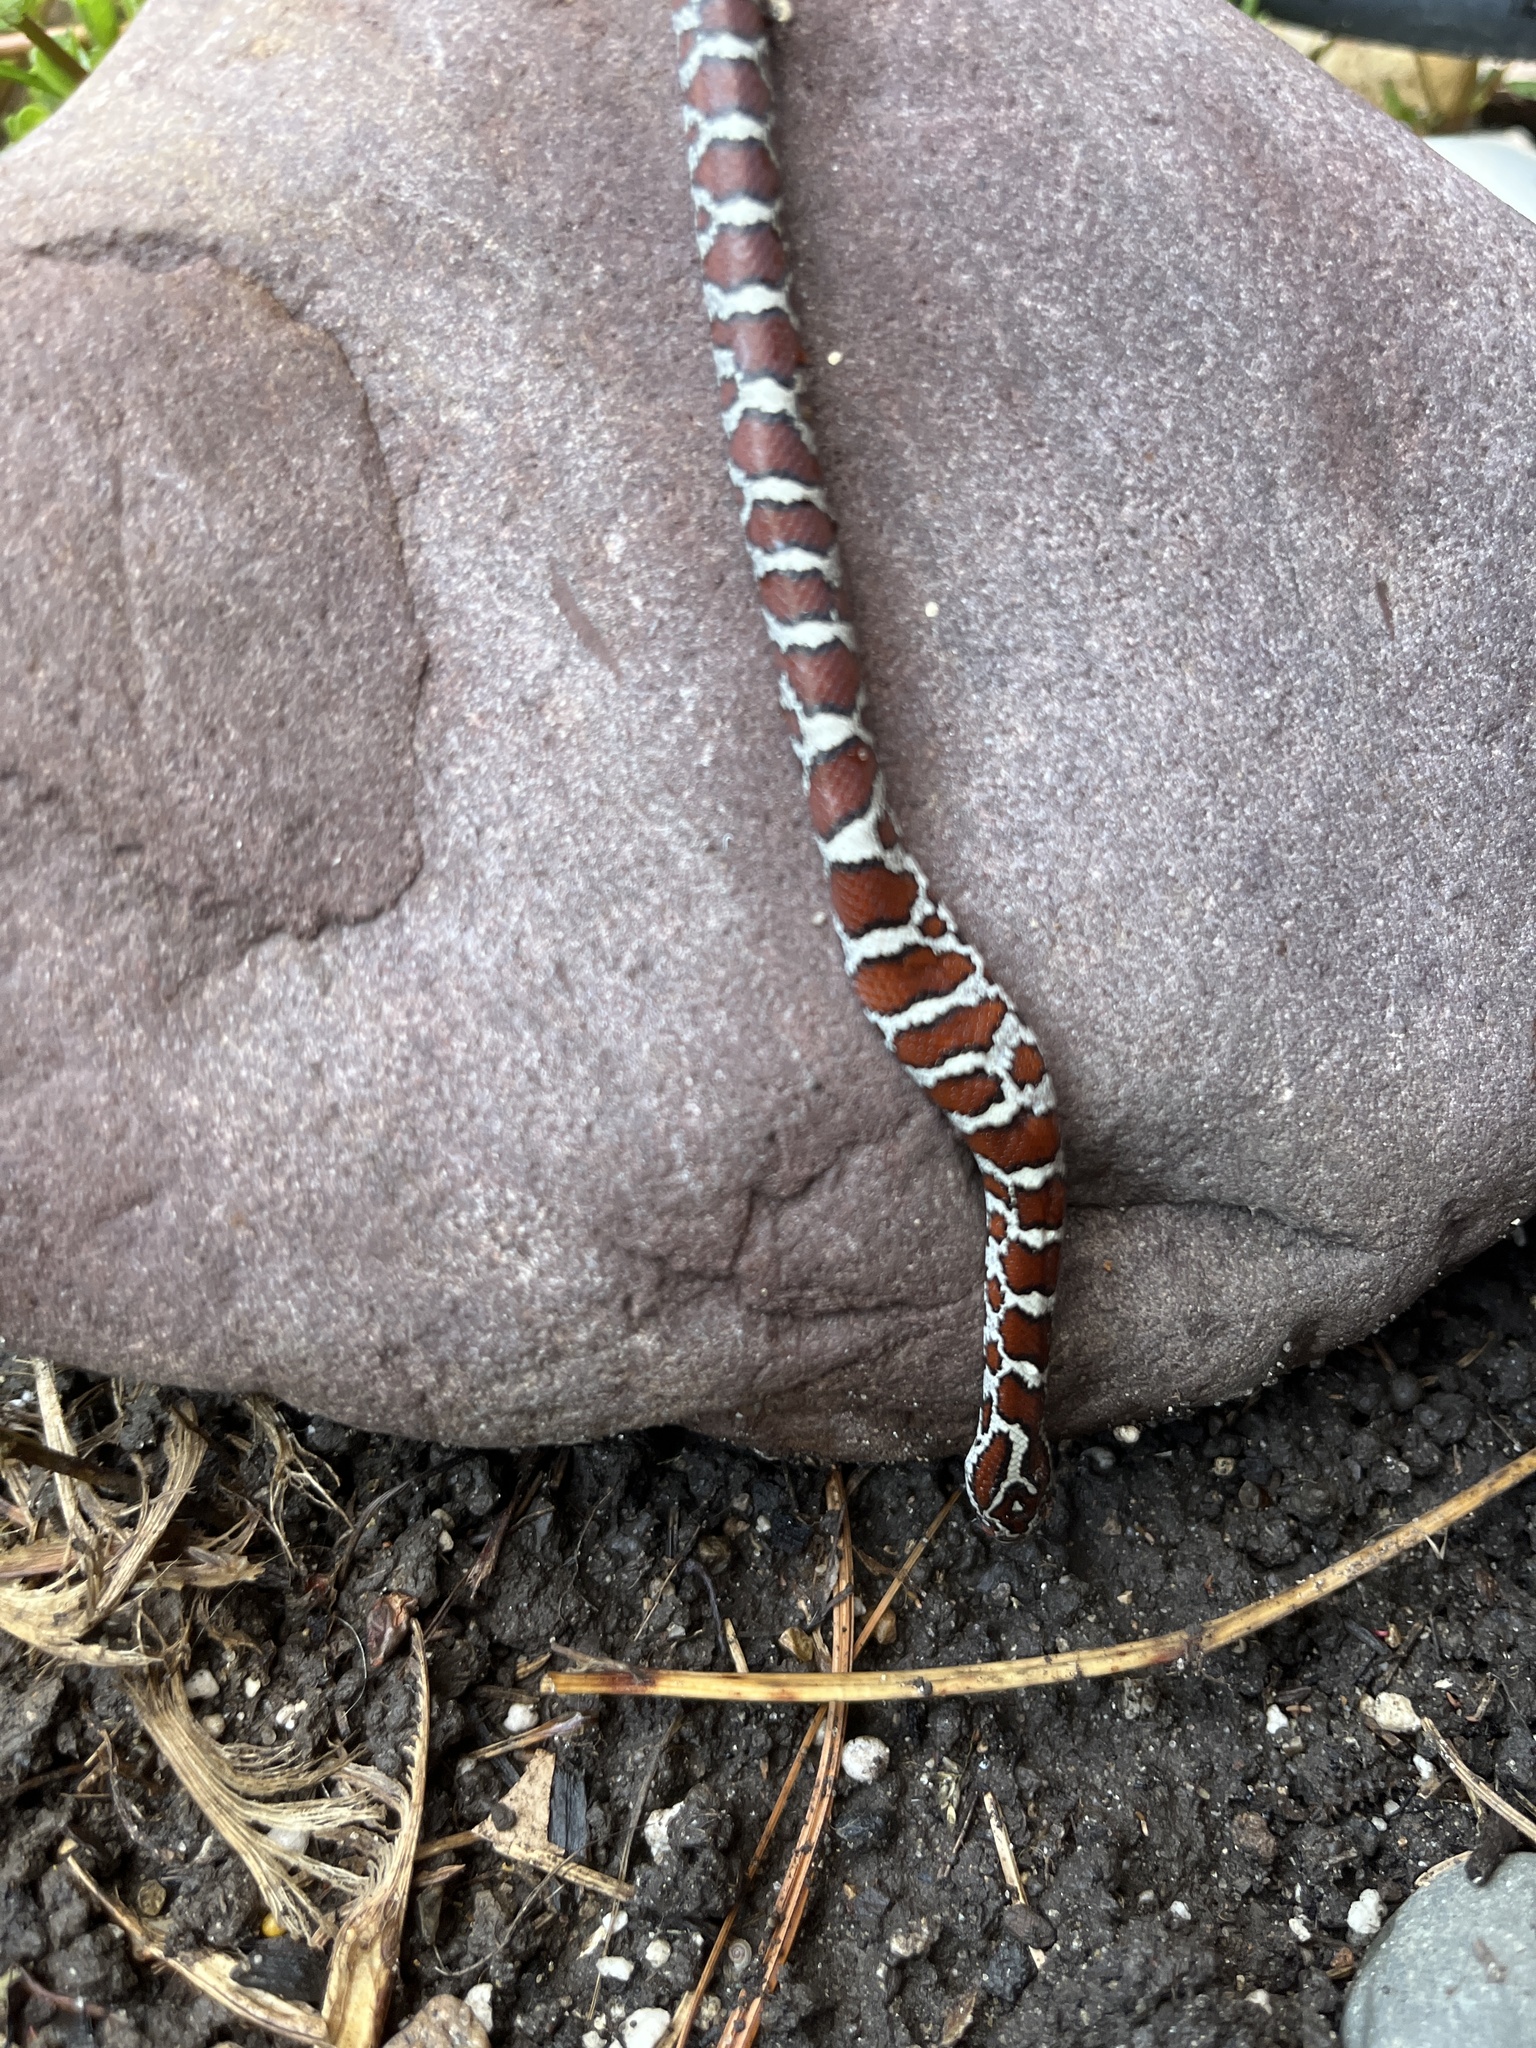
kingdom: Animalia
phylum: Chordata
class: Squamata
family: Colubridae
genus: Lampropeltis
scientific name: Lampropeltis triangulum
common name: Eastern milksnake
